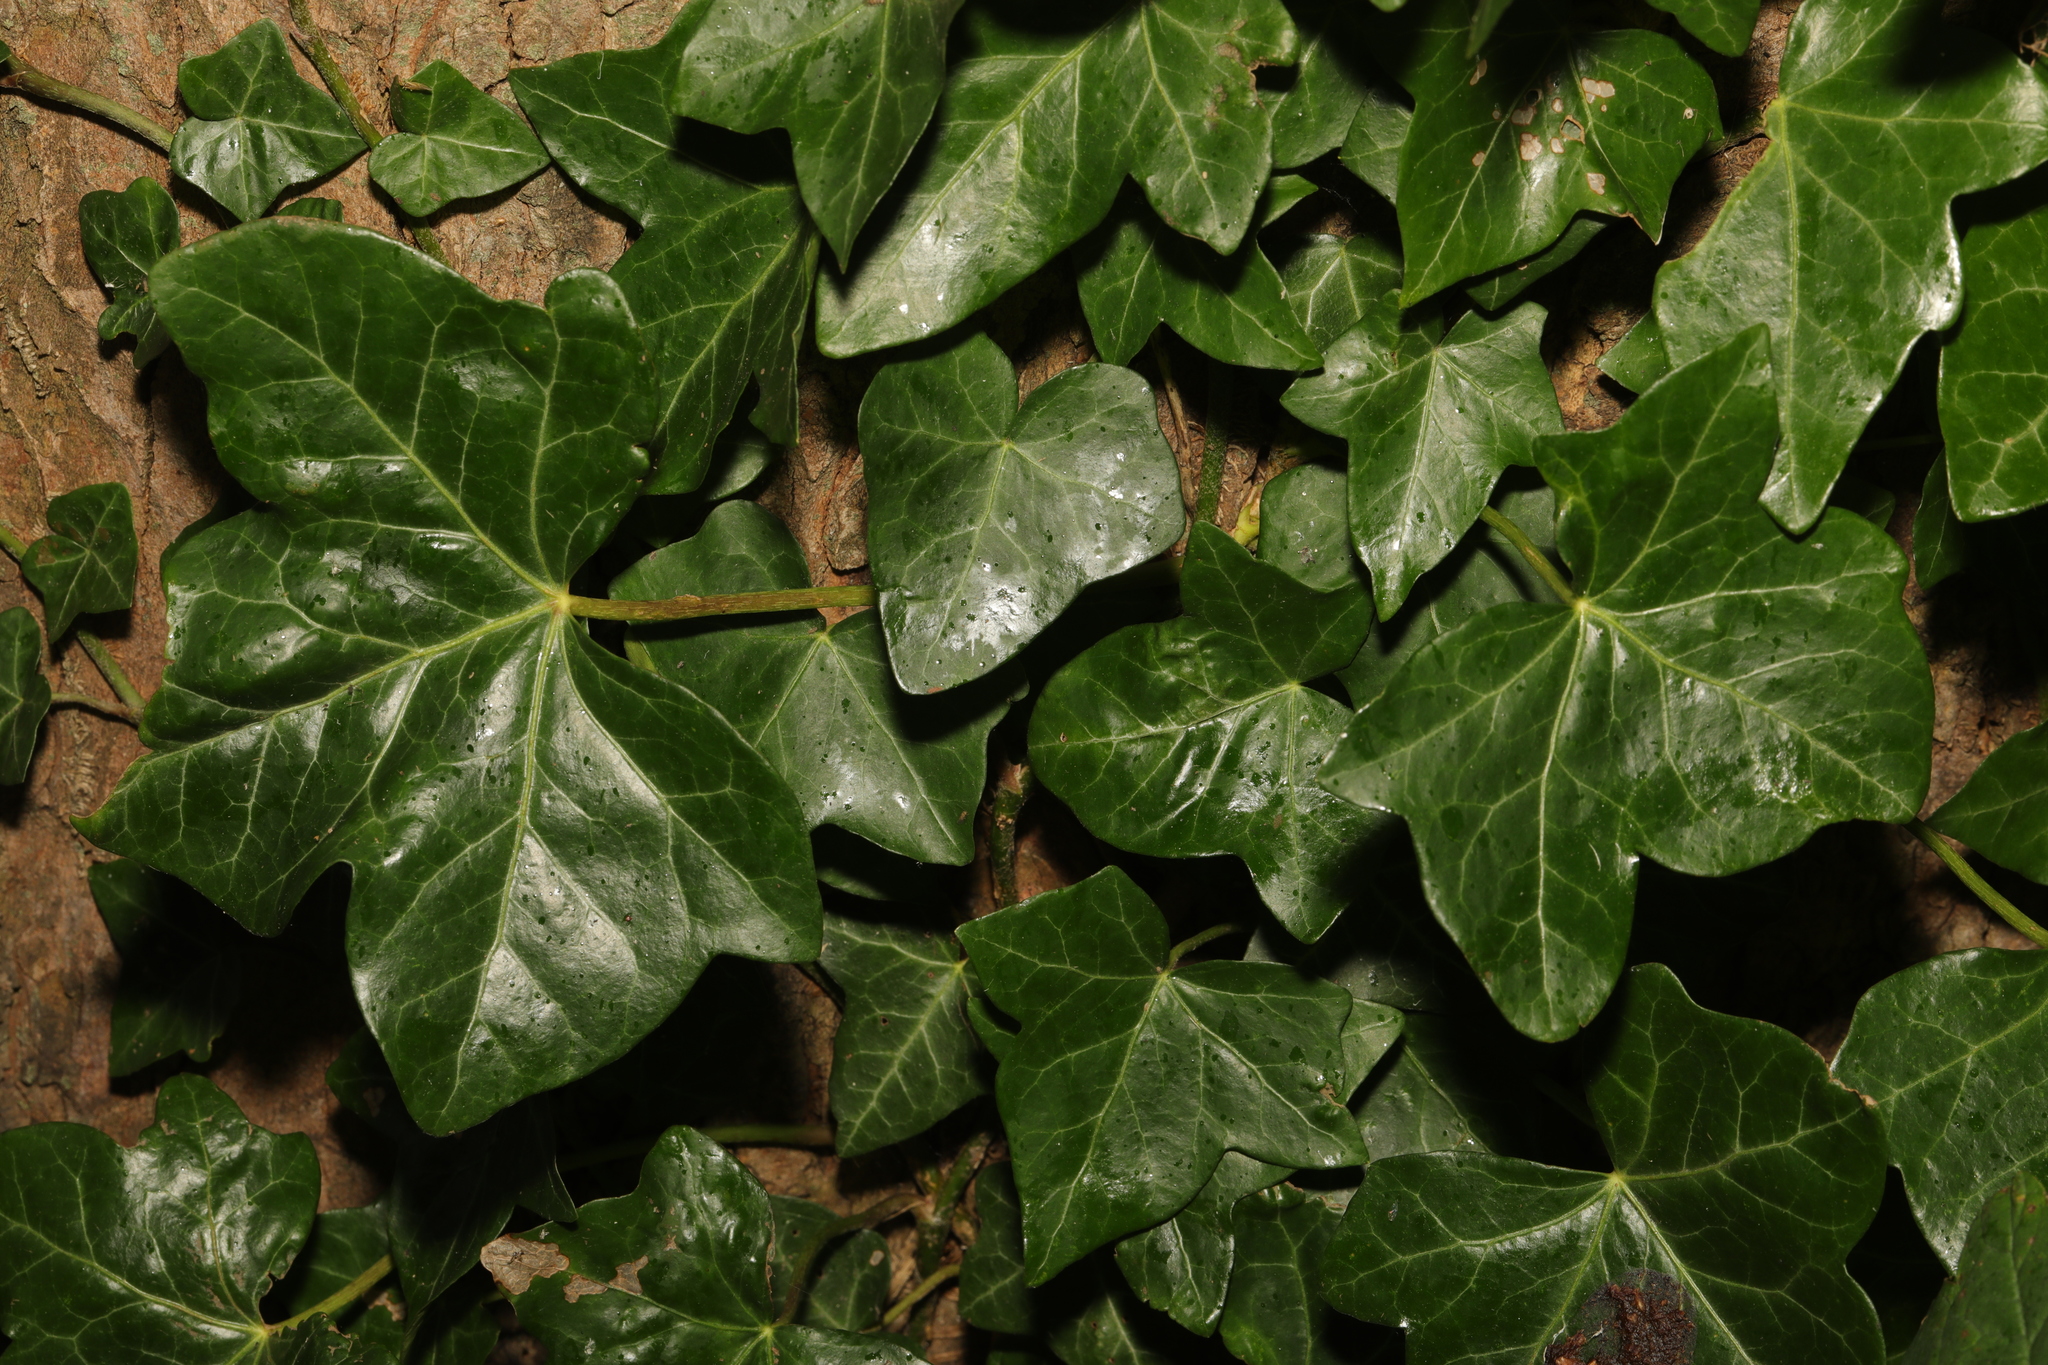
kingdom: Plantae
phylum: Tracheophyta
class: Magnoliopsida
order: Apiales
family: Araliaceae
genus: Hedera
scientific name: Hedera helix
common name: Ivy
